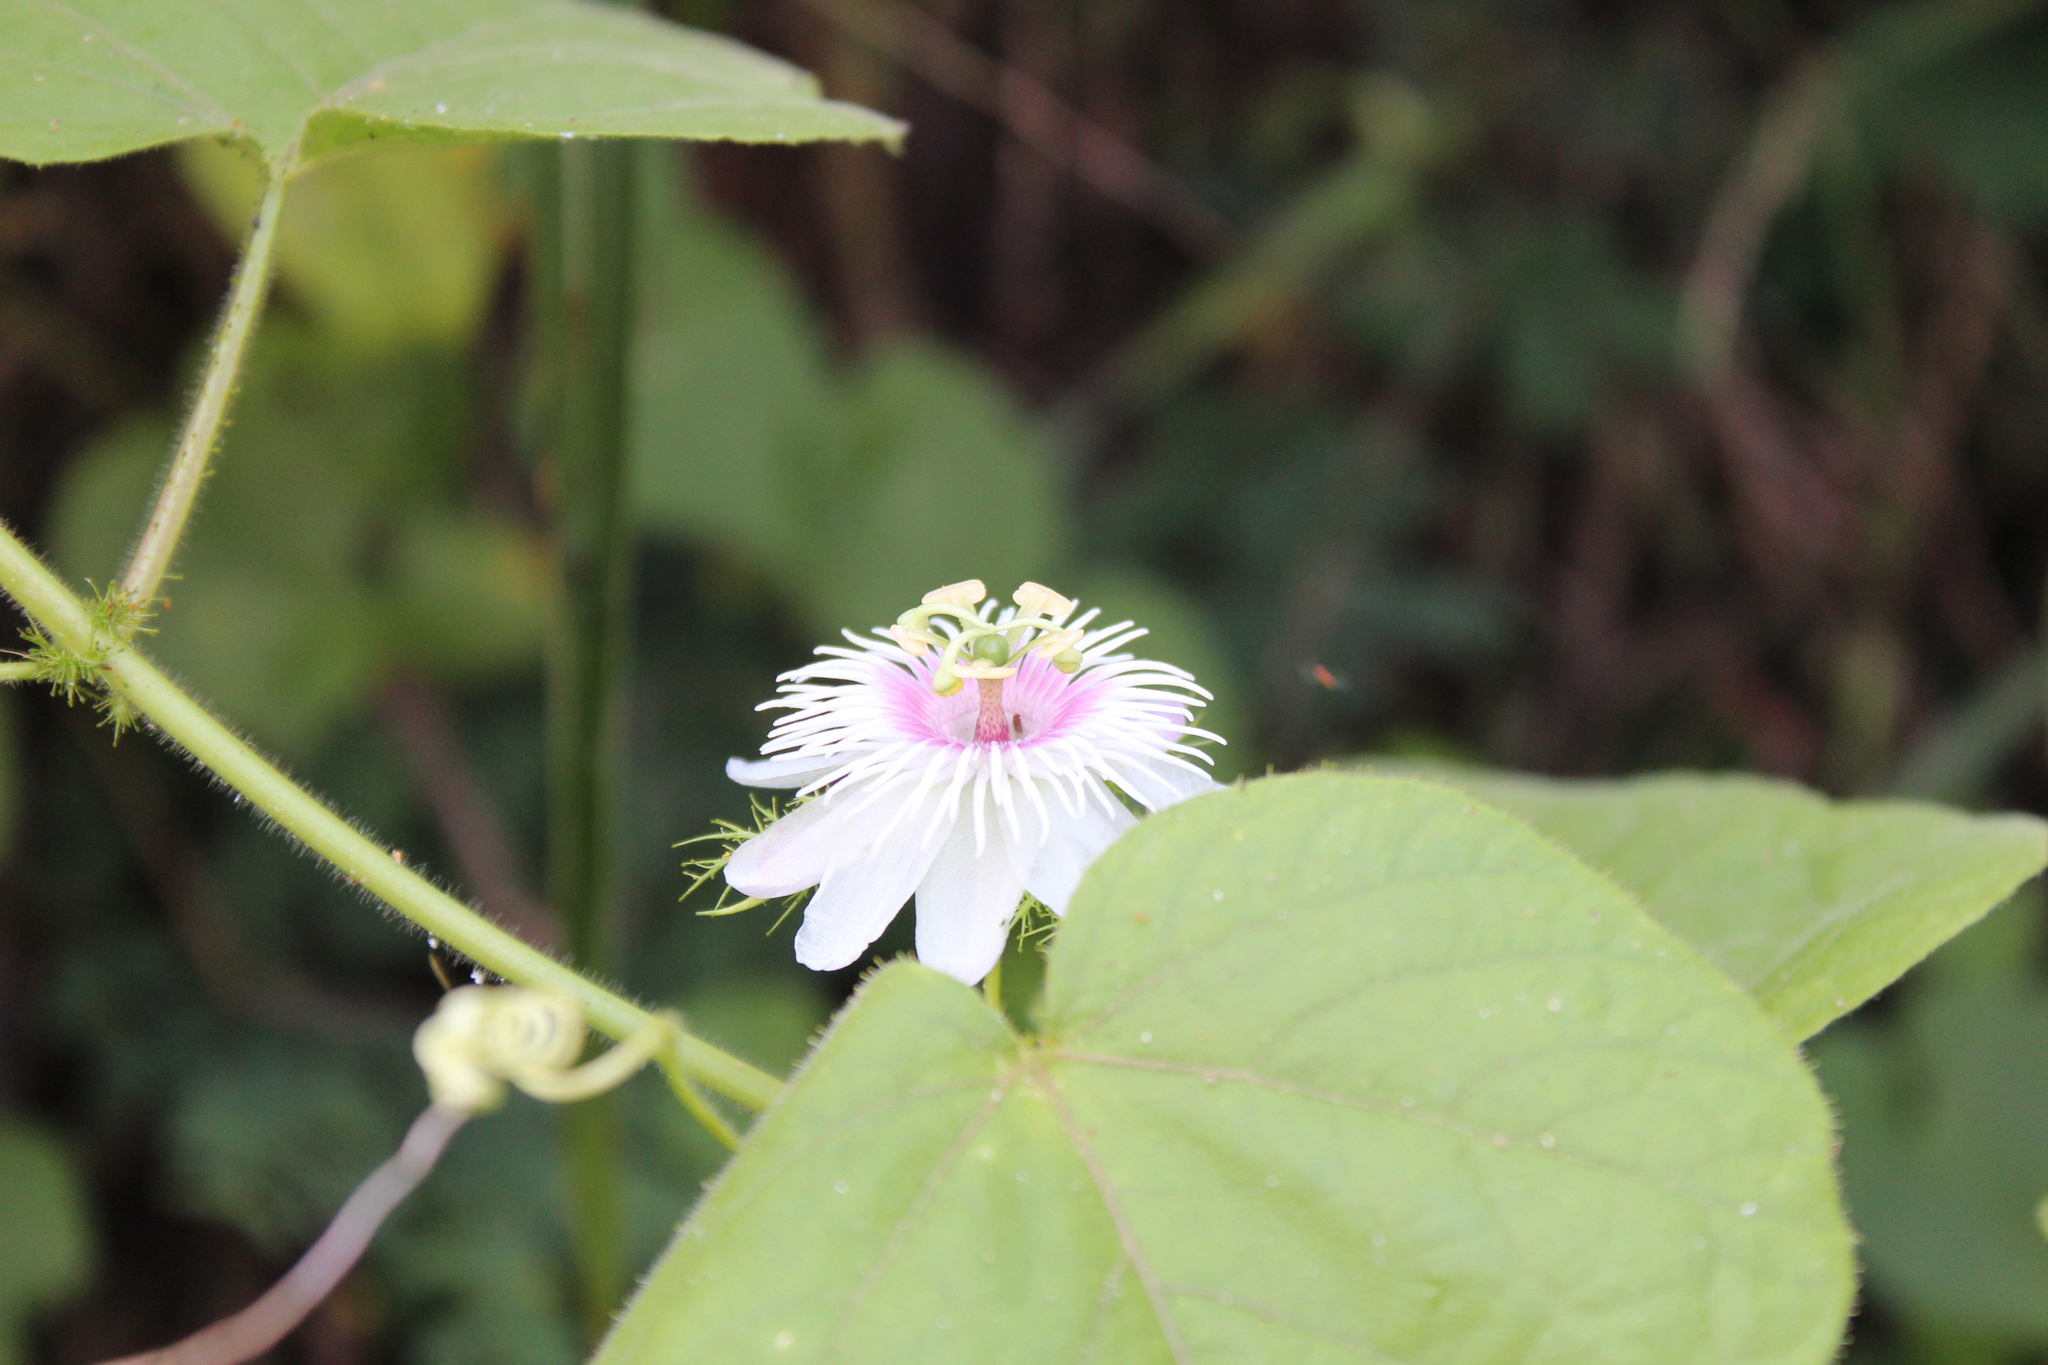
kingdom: Plantae
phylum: Tracheophyta
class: Magnoliopsida
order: Malpighiales
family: Passifloraceae
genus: Passiflora
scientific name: Passiflora vesicaria
